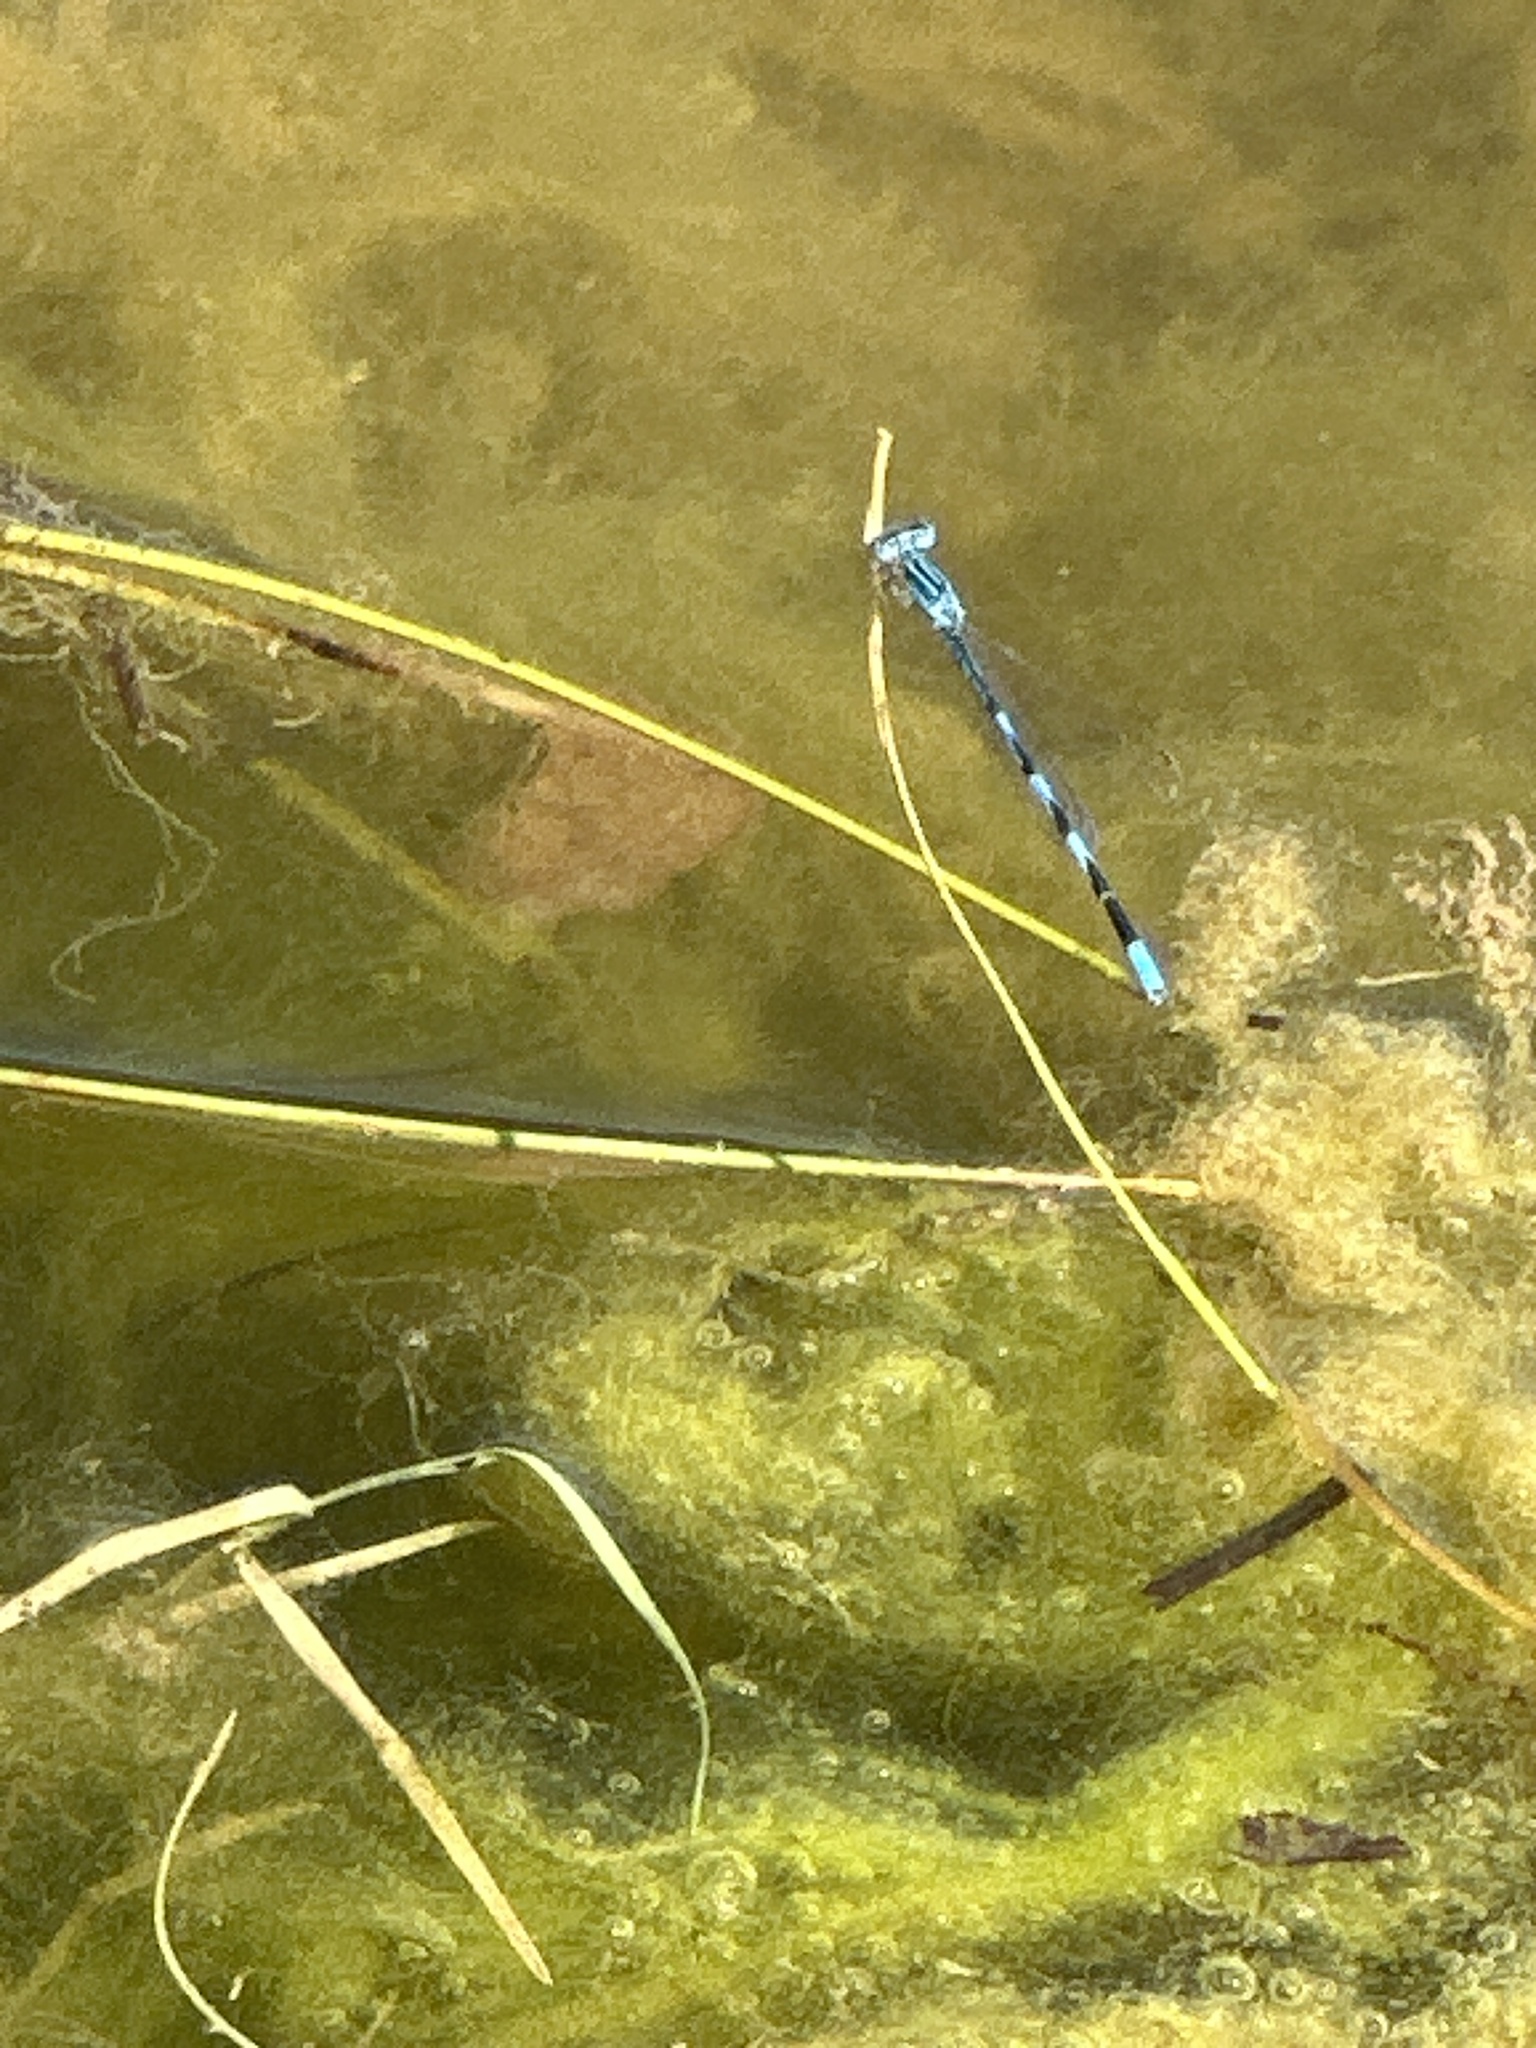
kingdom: Animalia
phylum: Arthropoda
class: Insecta
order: Odonata
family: Coenagrionidae
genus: Enallagma
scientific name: Enallagma basidens
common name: Double-striped bluet
